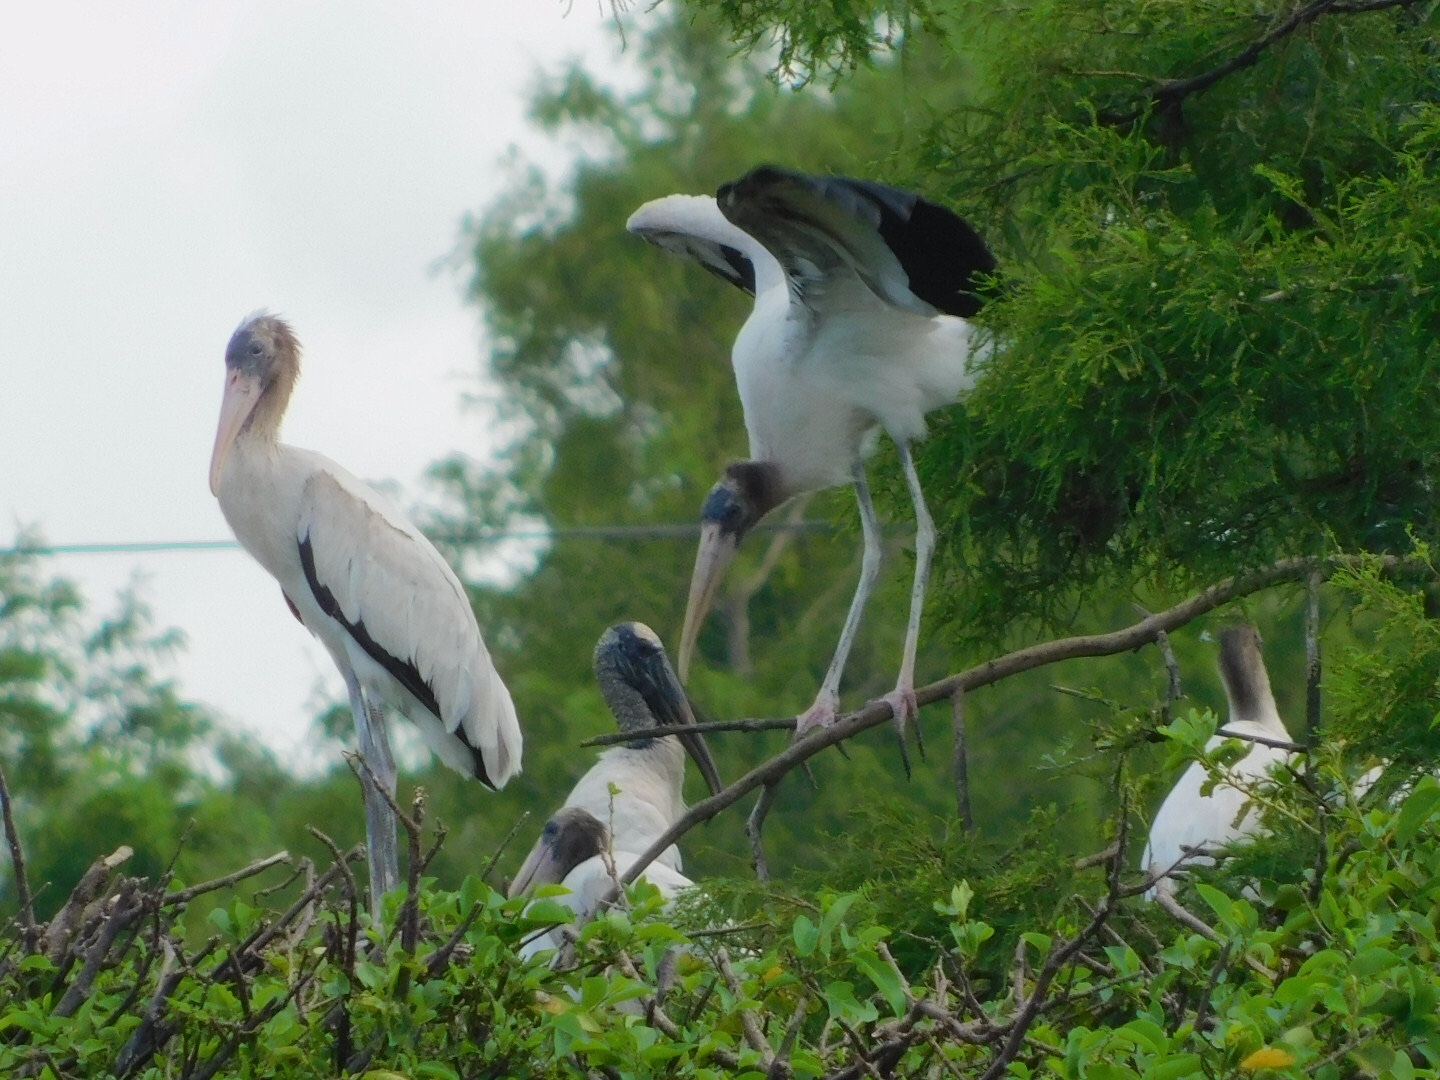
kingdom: Animalia
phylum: Chordata
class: Aves
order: Ciconiiformes
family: Ciconiidae
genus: Mycteria
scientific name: Mycteria americana
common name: Wood stork
